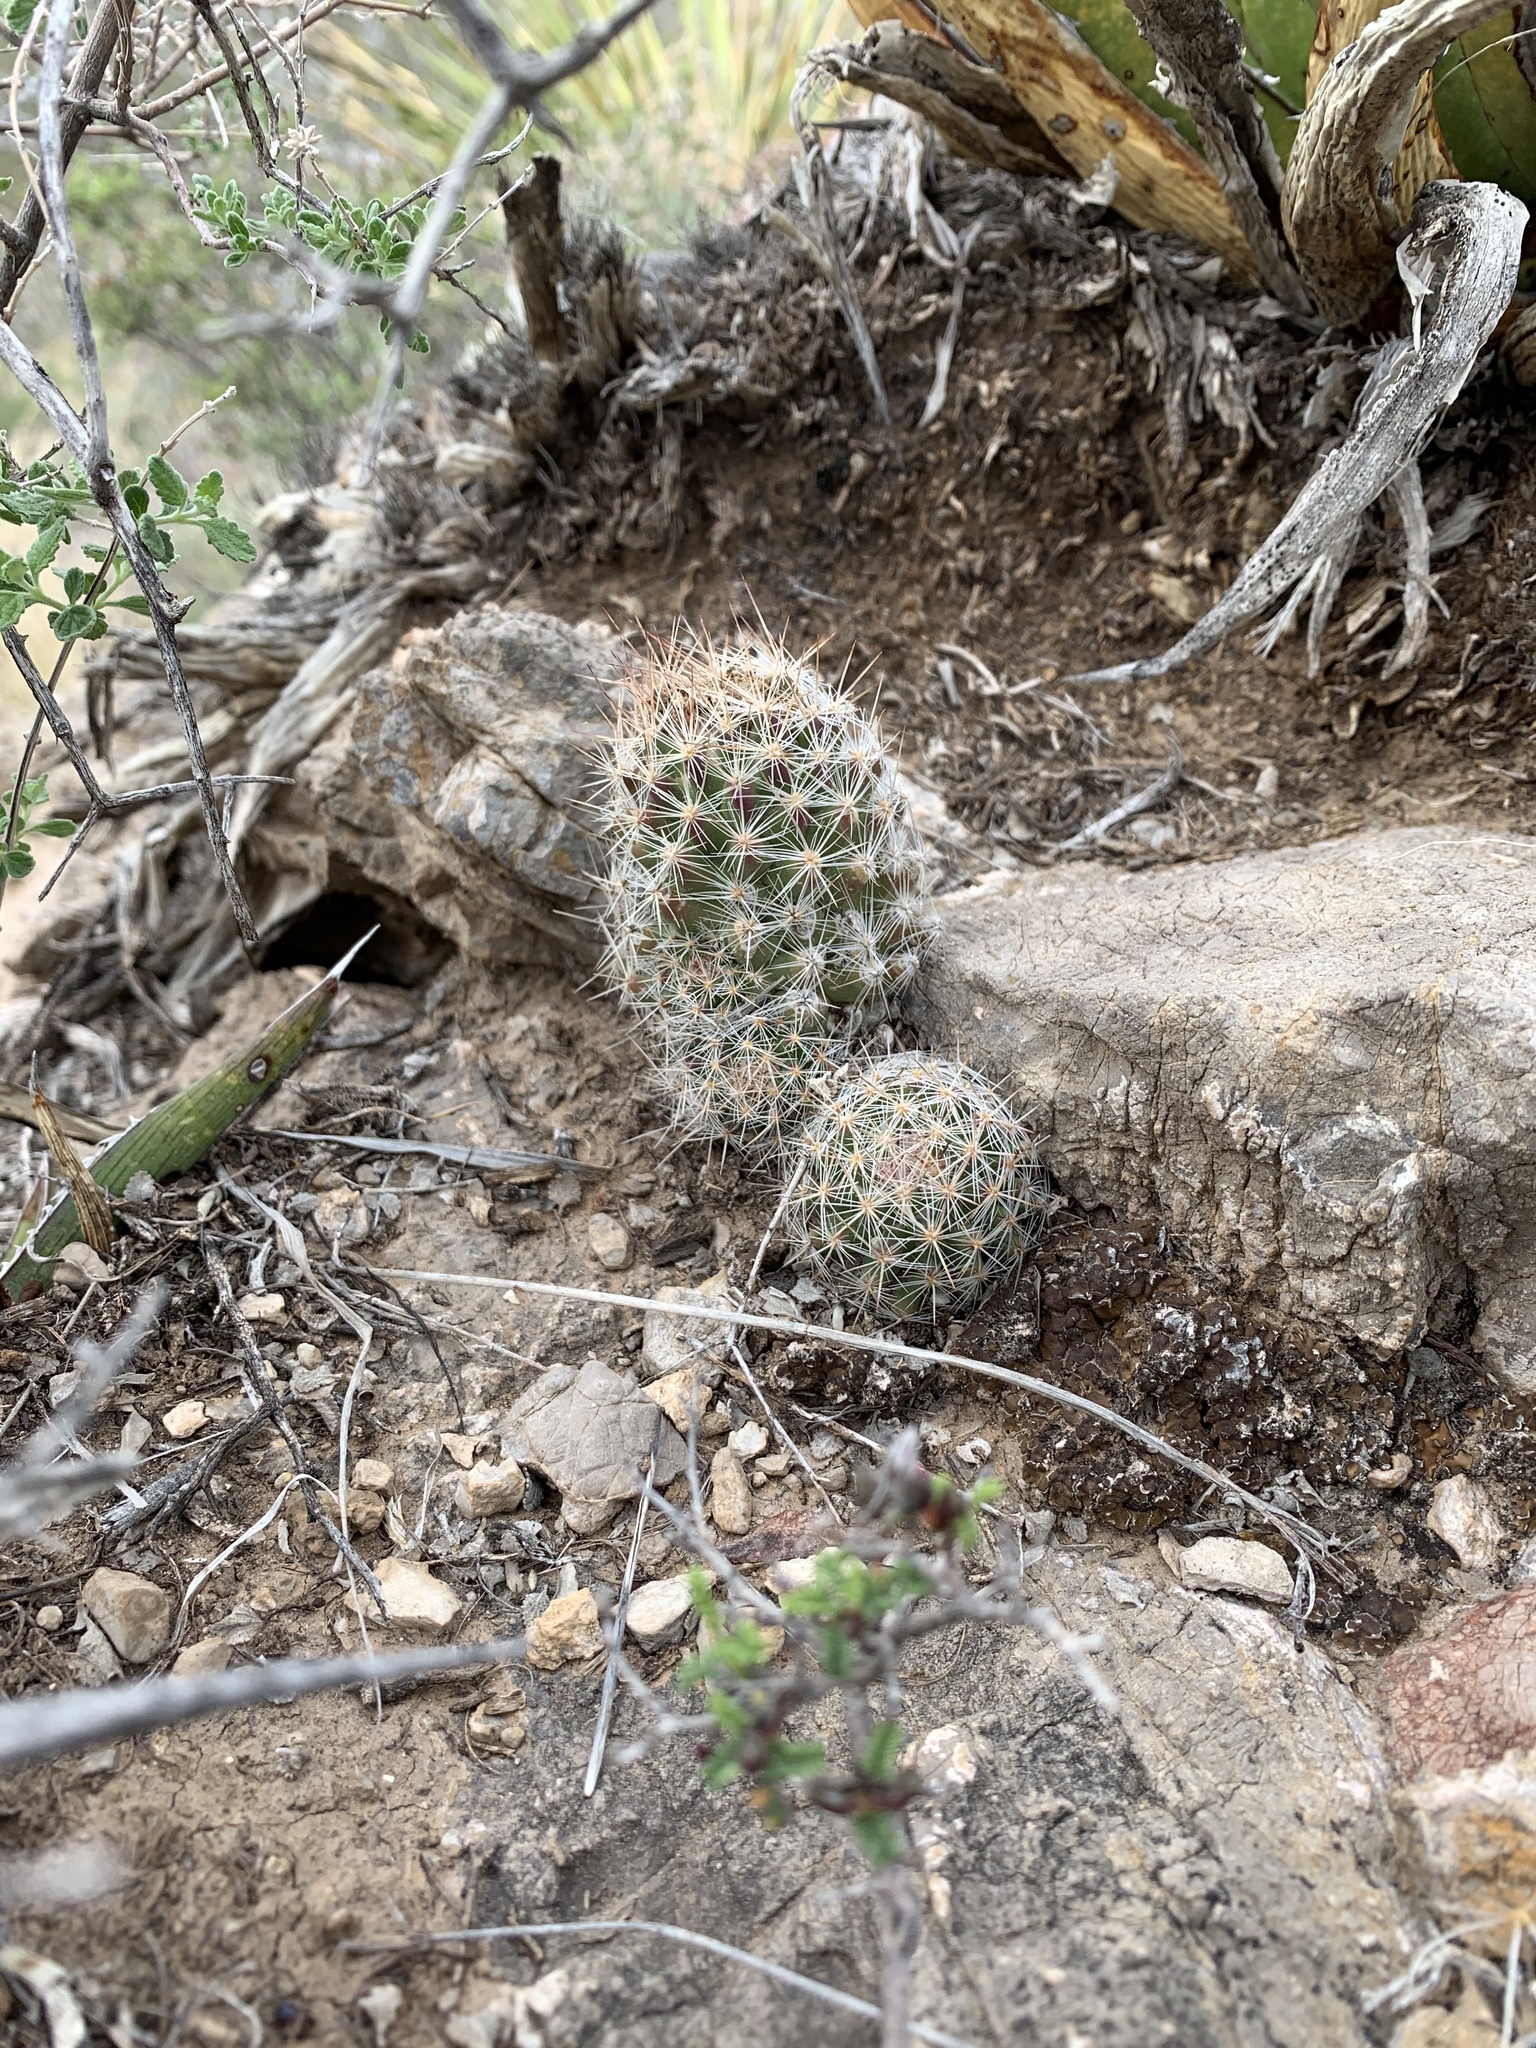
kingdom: Plantae
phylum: Tracheophyta
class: Magnoliopsida
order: Caryophyllales
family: Cactaceae
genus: Pelecyphora
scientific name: Pelecyphora tuberculosa
